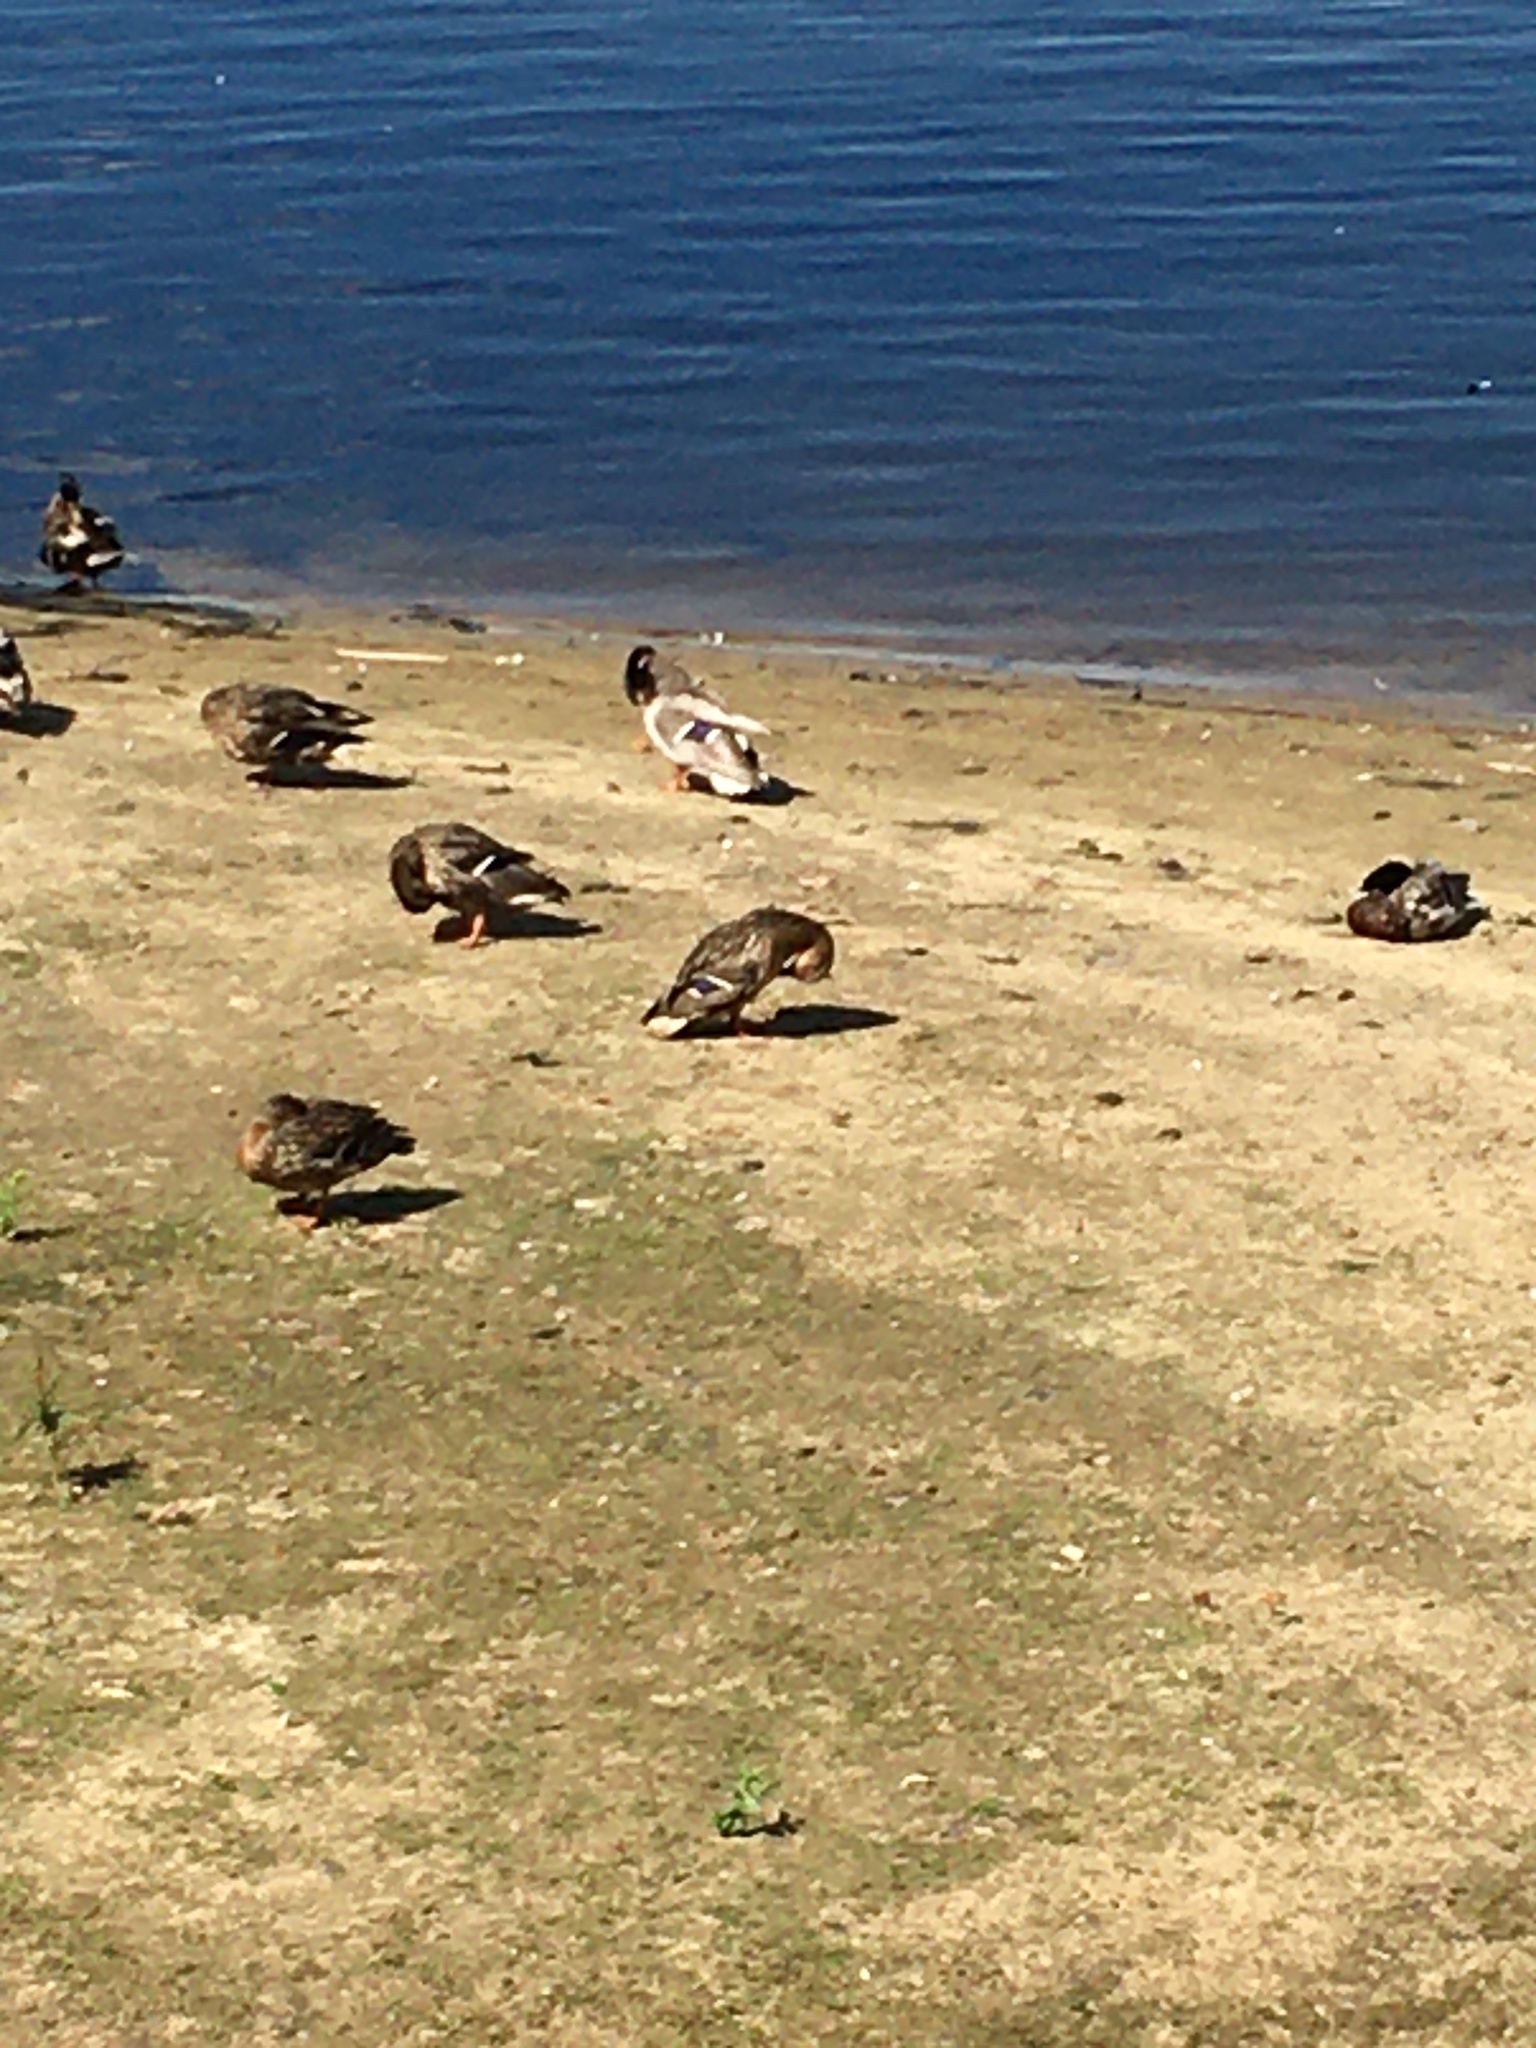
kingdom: Animalia
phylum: Chordata
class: Aves
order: Anseriformes
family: Anatidae
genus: Anas
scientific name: Anas platyrhynchos
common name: Mallard
